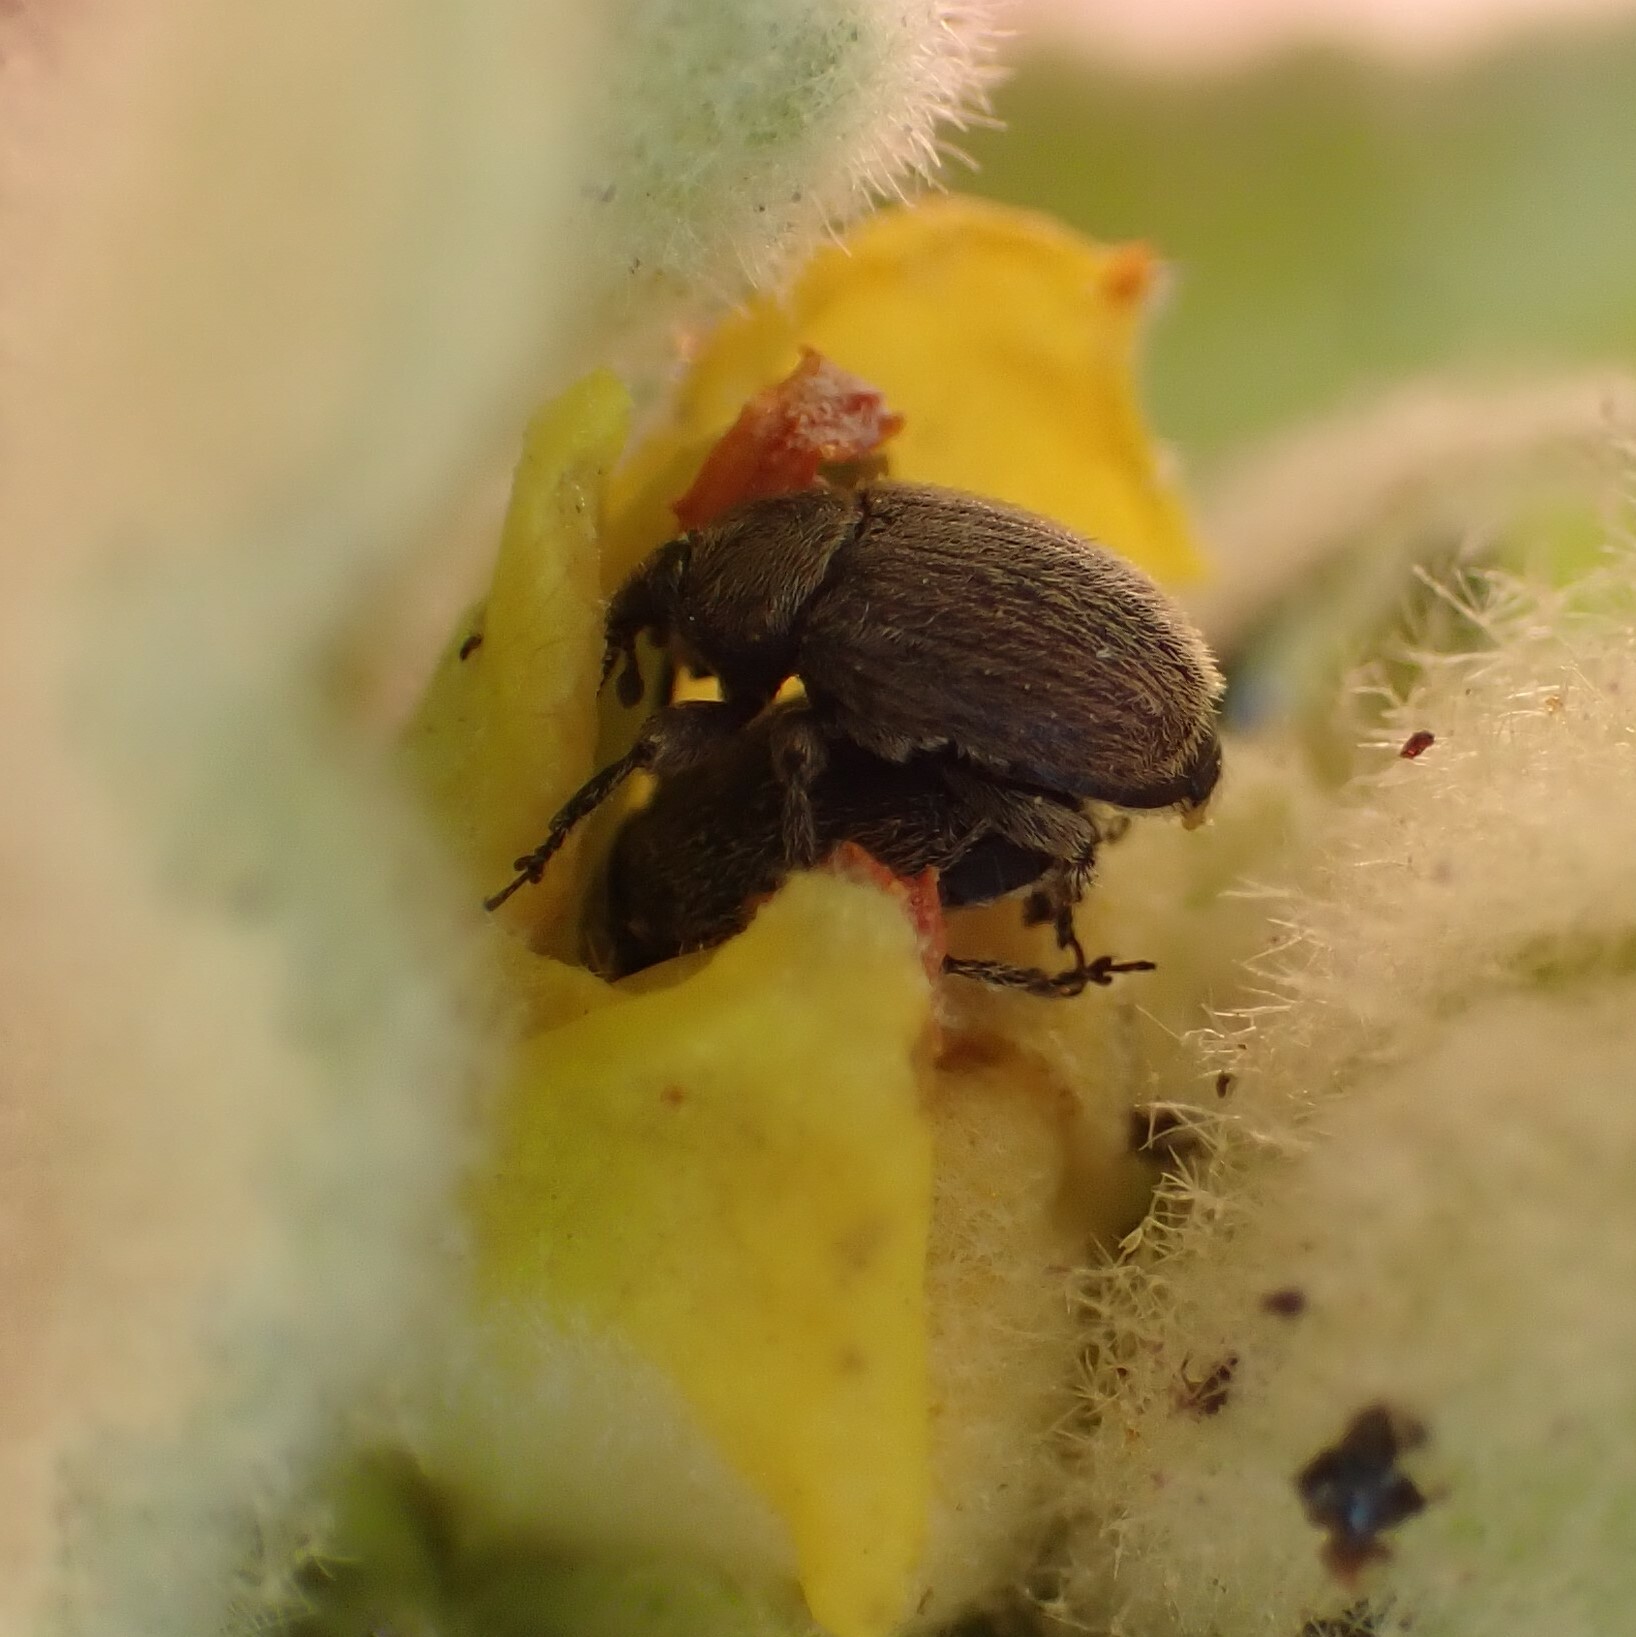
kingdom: Animalia
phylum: Arthropoda
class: Insecta
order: Coleoptera
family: Curculionidae
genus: Rhinusa
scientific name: Rhinusa tetra
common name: Weevil
